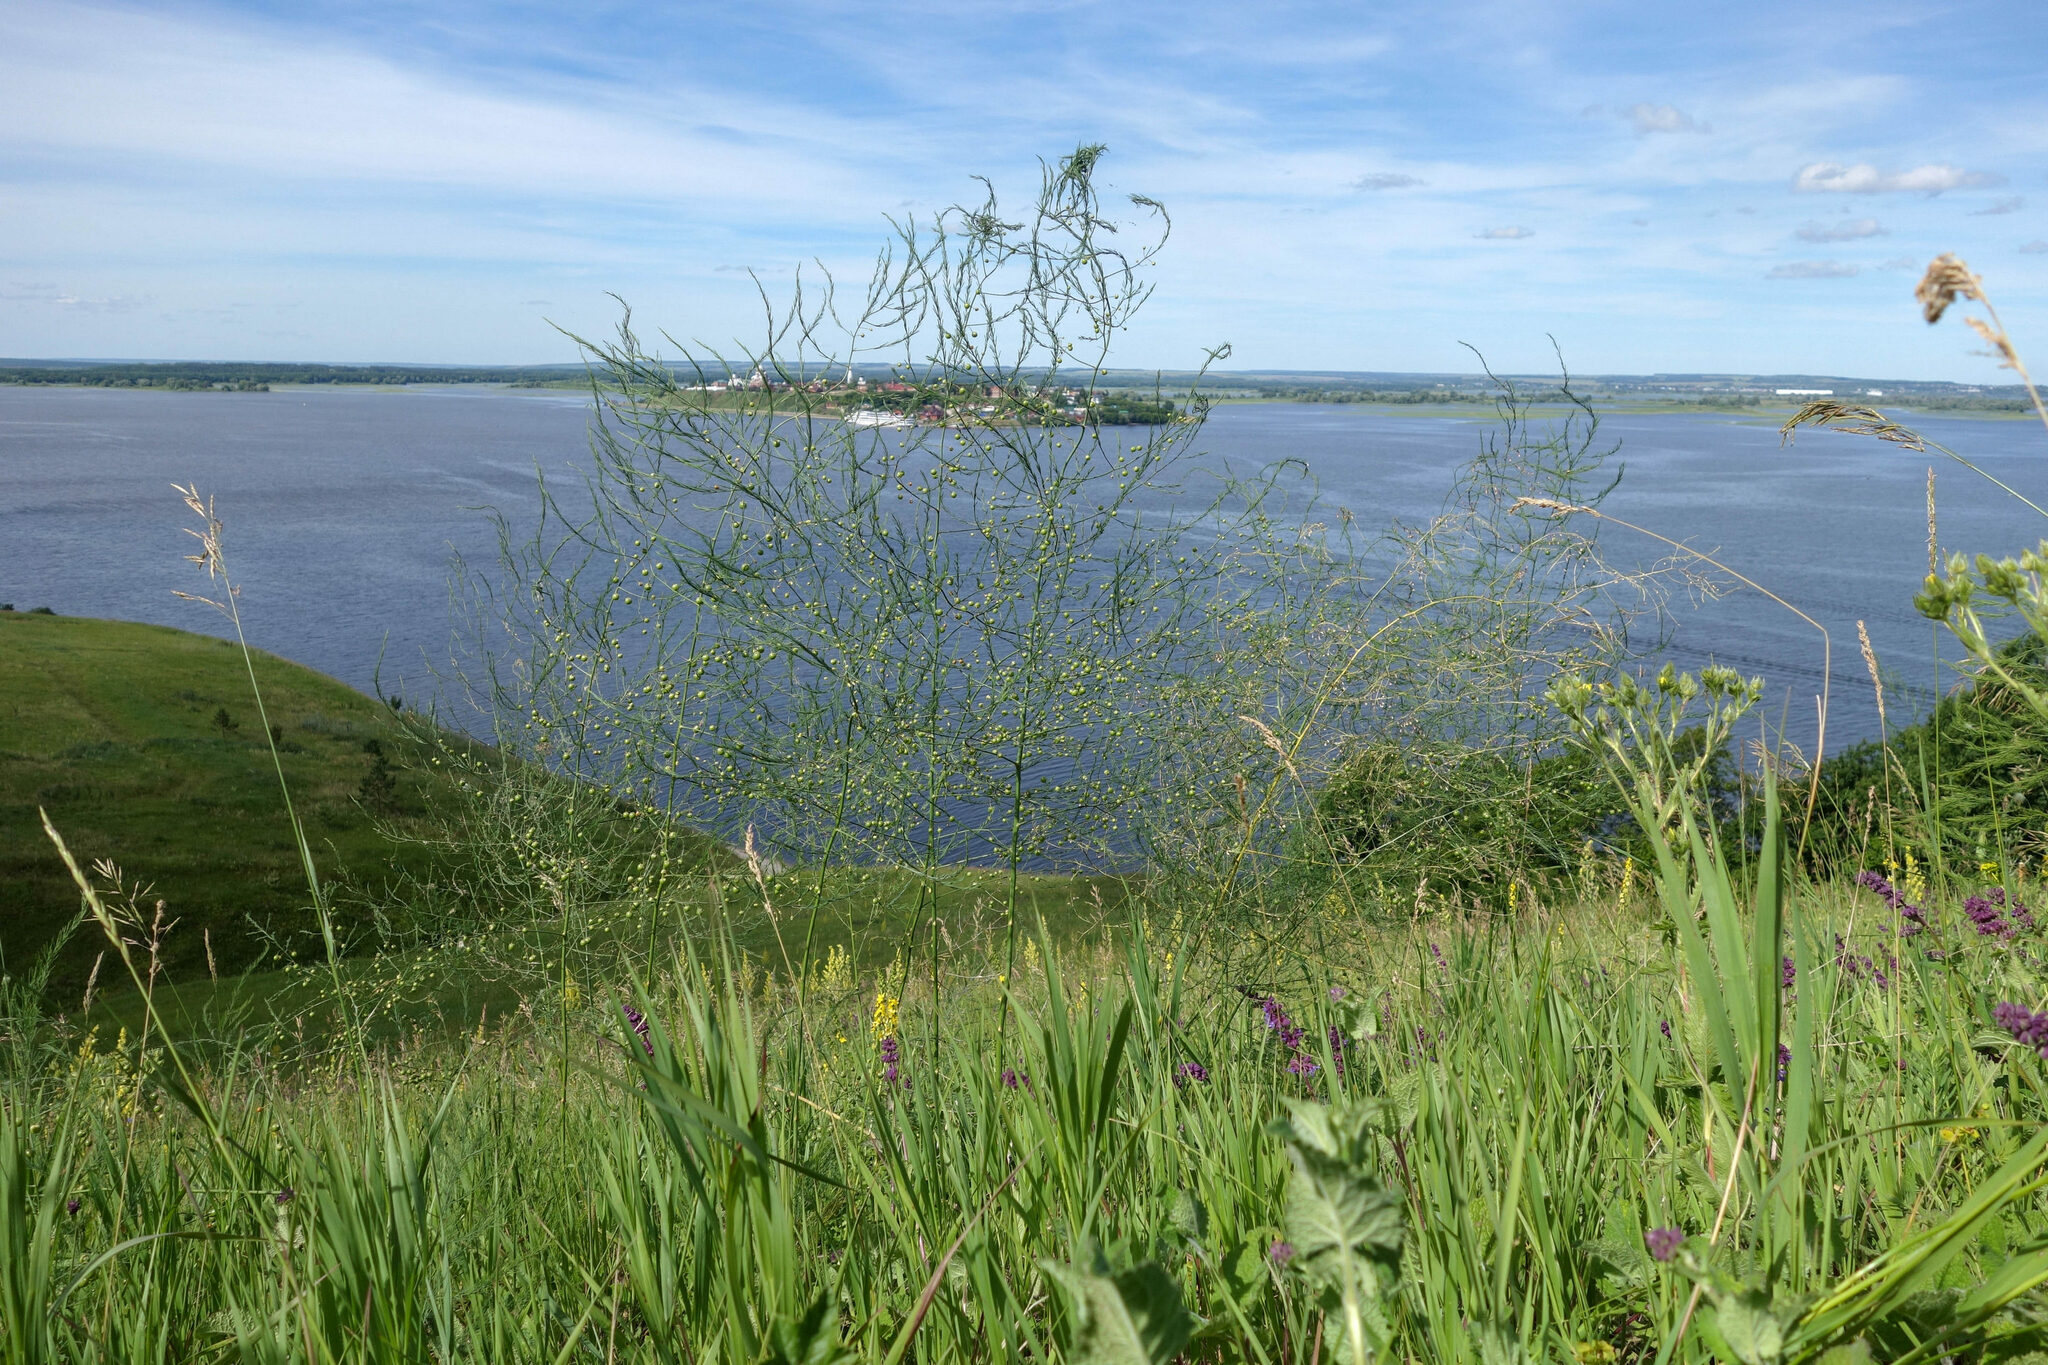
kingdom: Plantae
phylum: Tracheophyta
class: Liliopsida
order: Asparagales
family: Asparagaceae
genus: Asparagus
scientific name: Asparagus officinalis
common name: Garden asparagus
